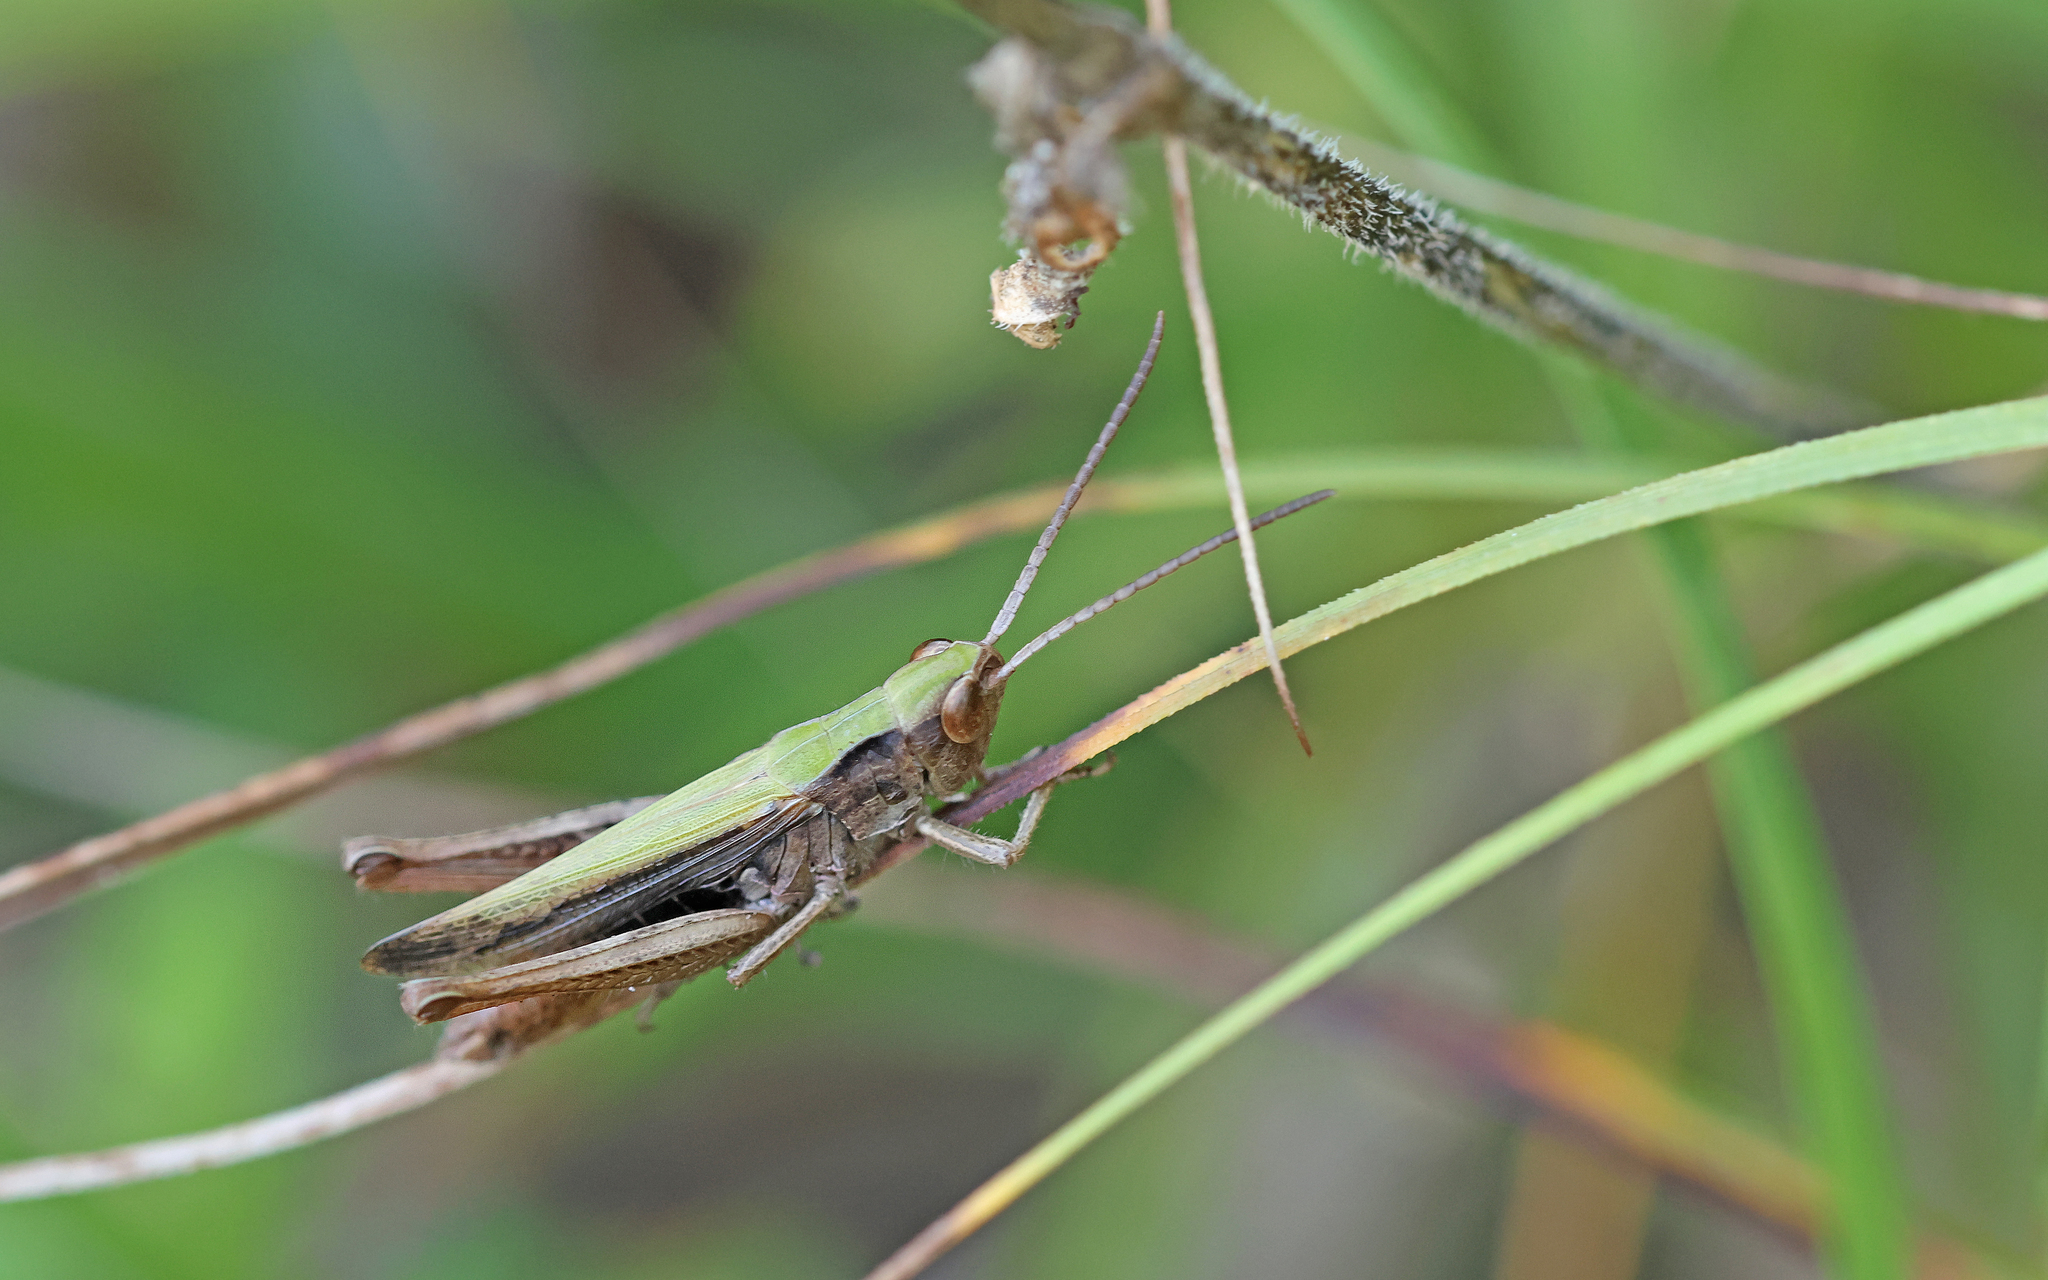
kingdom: Animalia
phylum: Arthropoda
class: Insecta
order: Orthoptera
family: Acrididae
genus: Chorthippus
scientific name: Chorthippus dorsatus
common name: Steppe grasshopper
